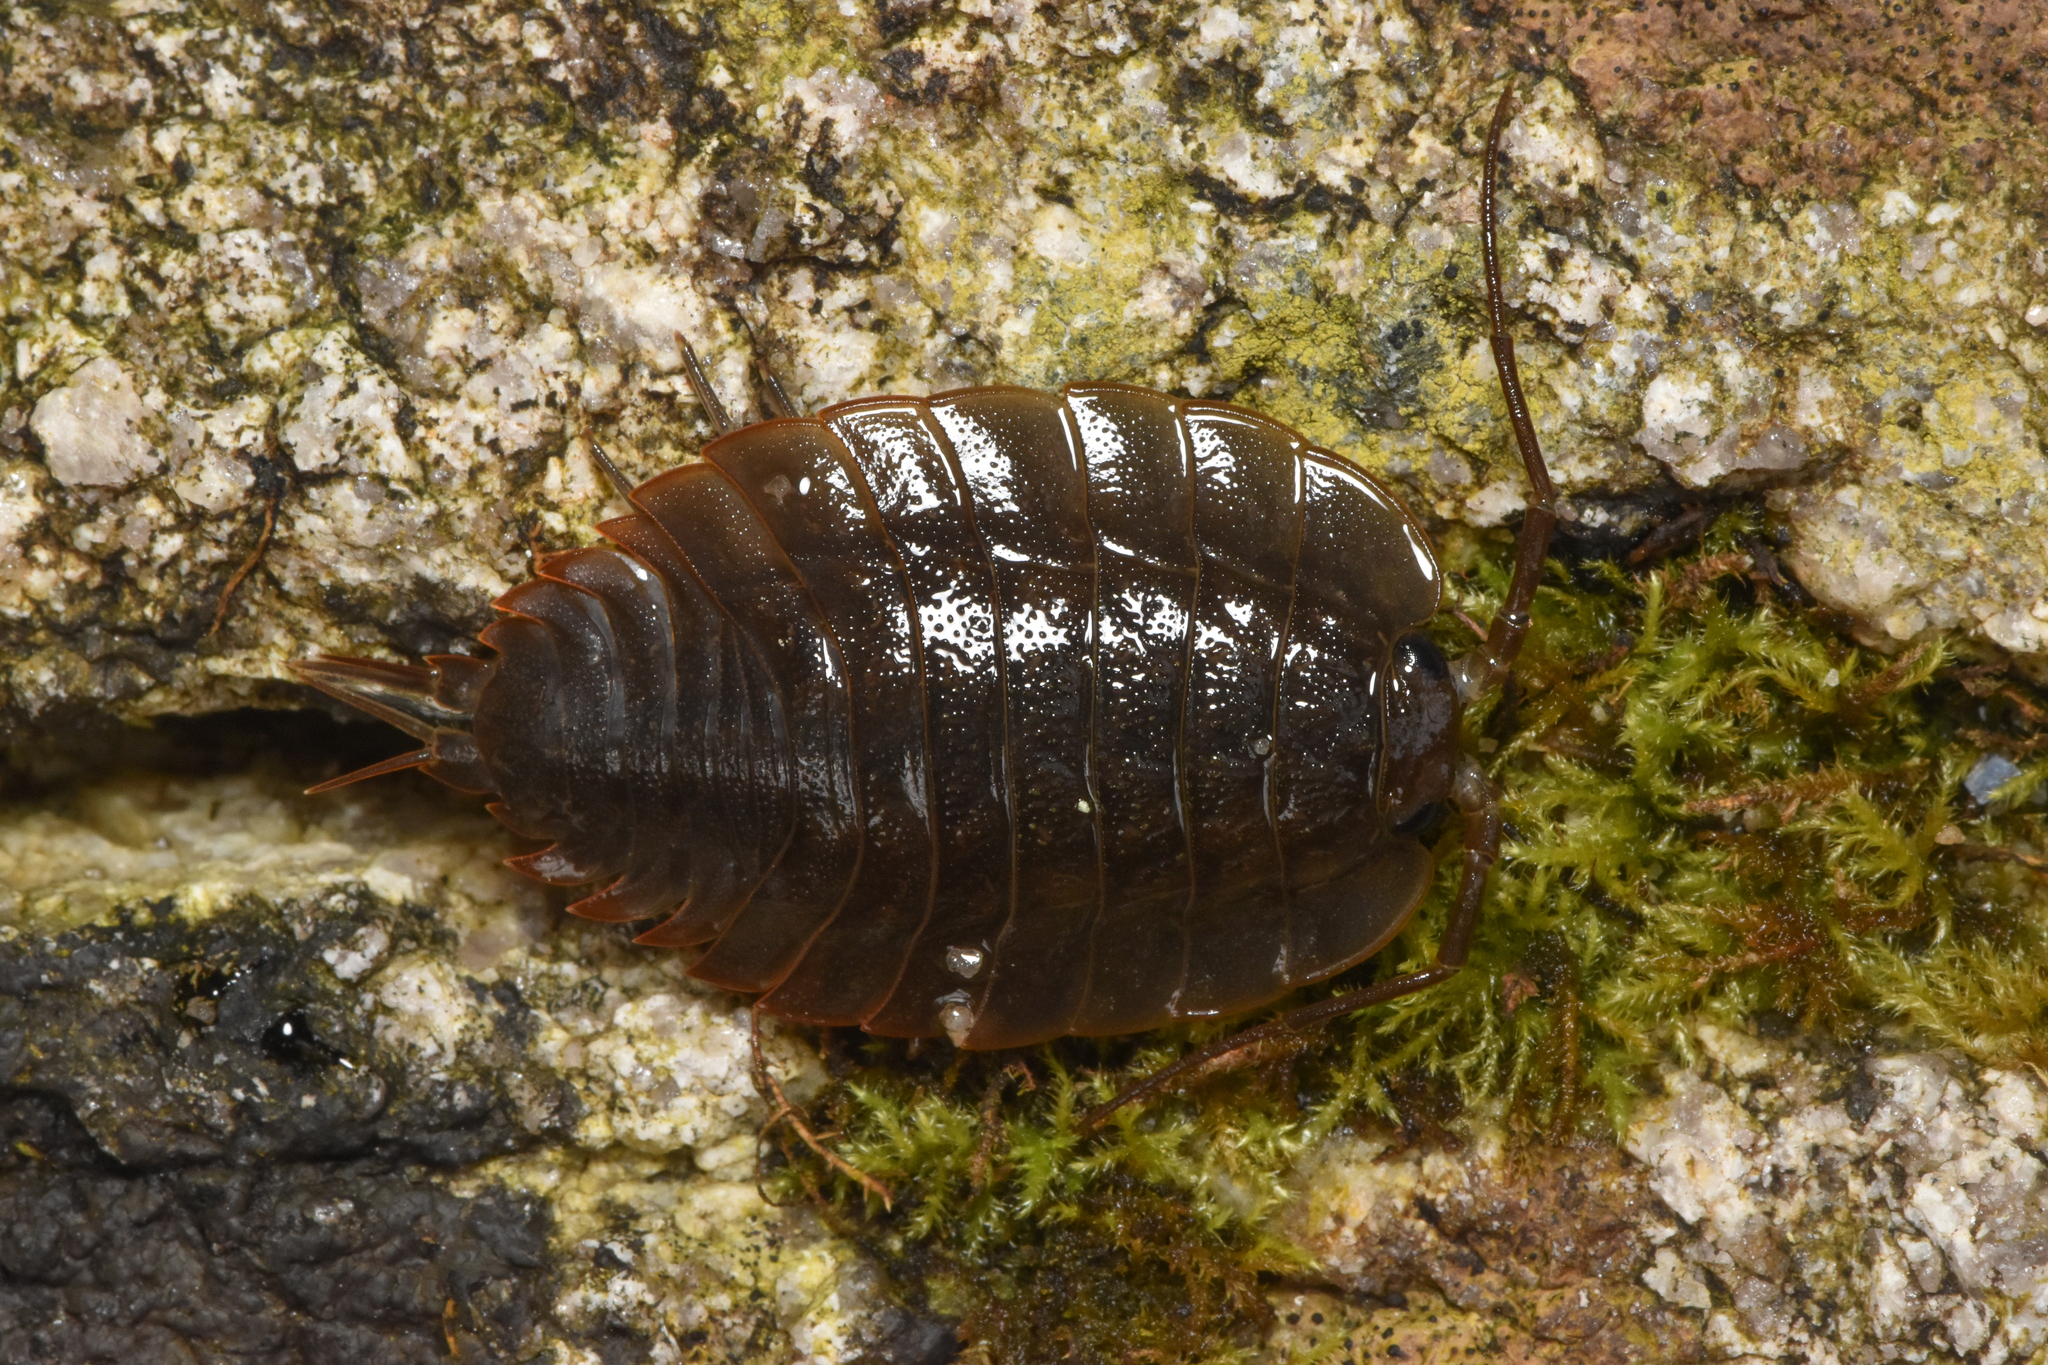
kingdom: Animalia
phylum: Arthropoda
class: Malacostraca
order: Isopoda
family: Ligiidae
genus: Ligia
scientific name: Ligia pallasii
